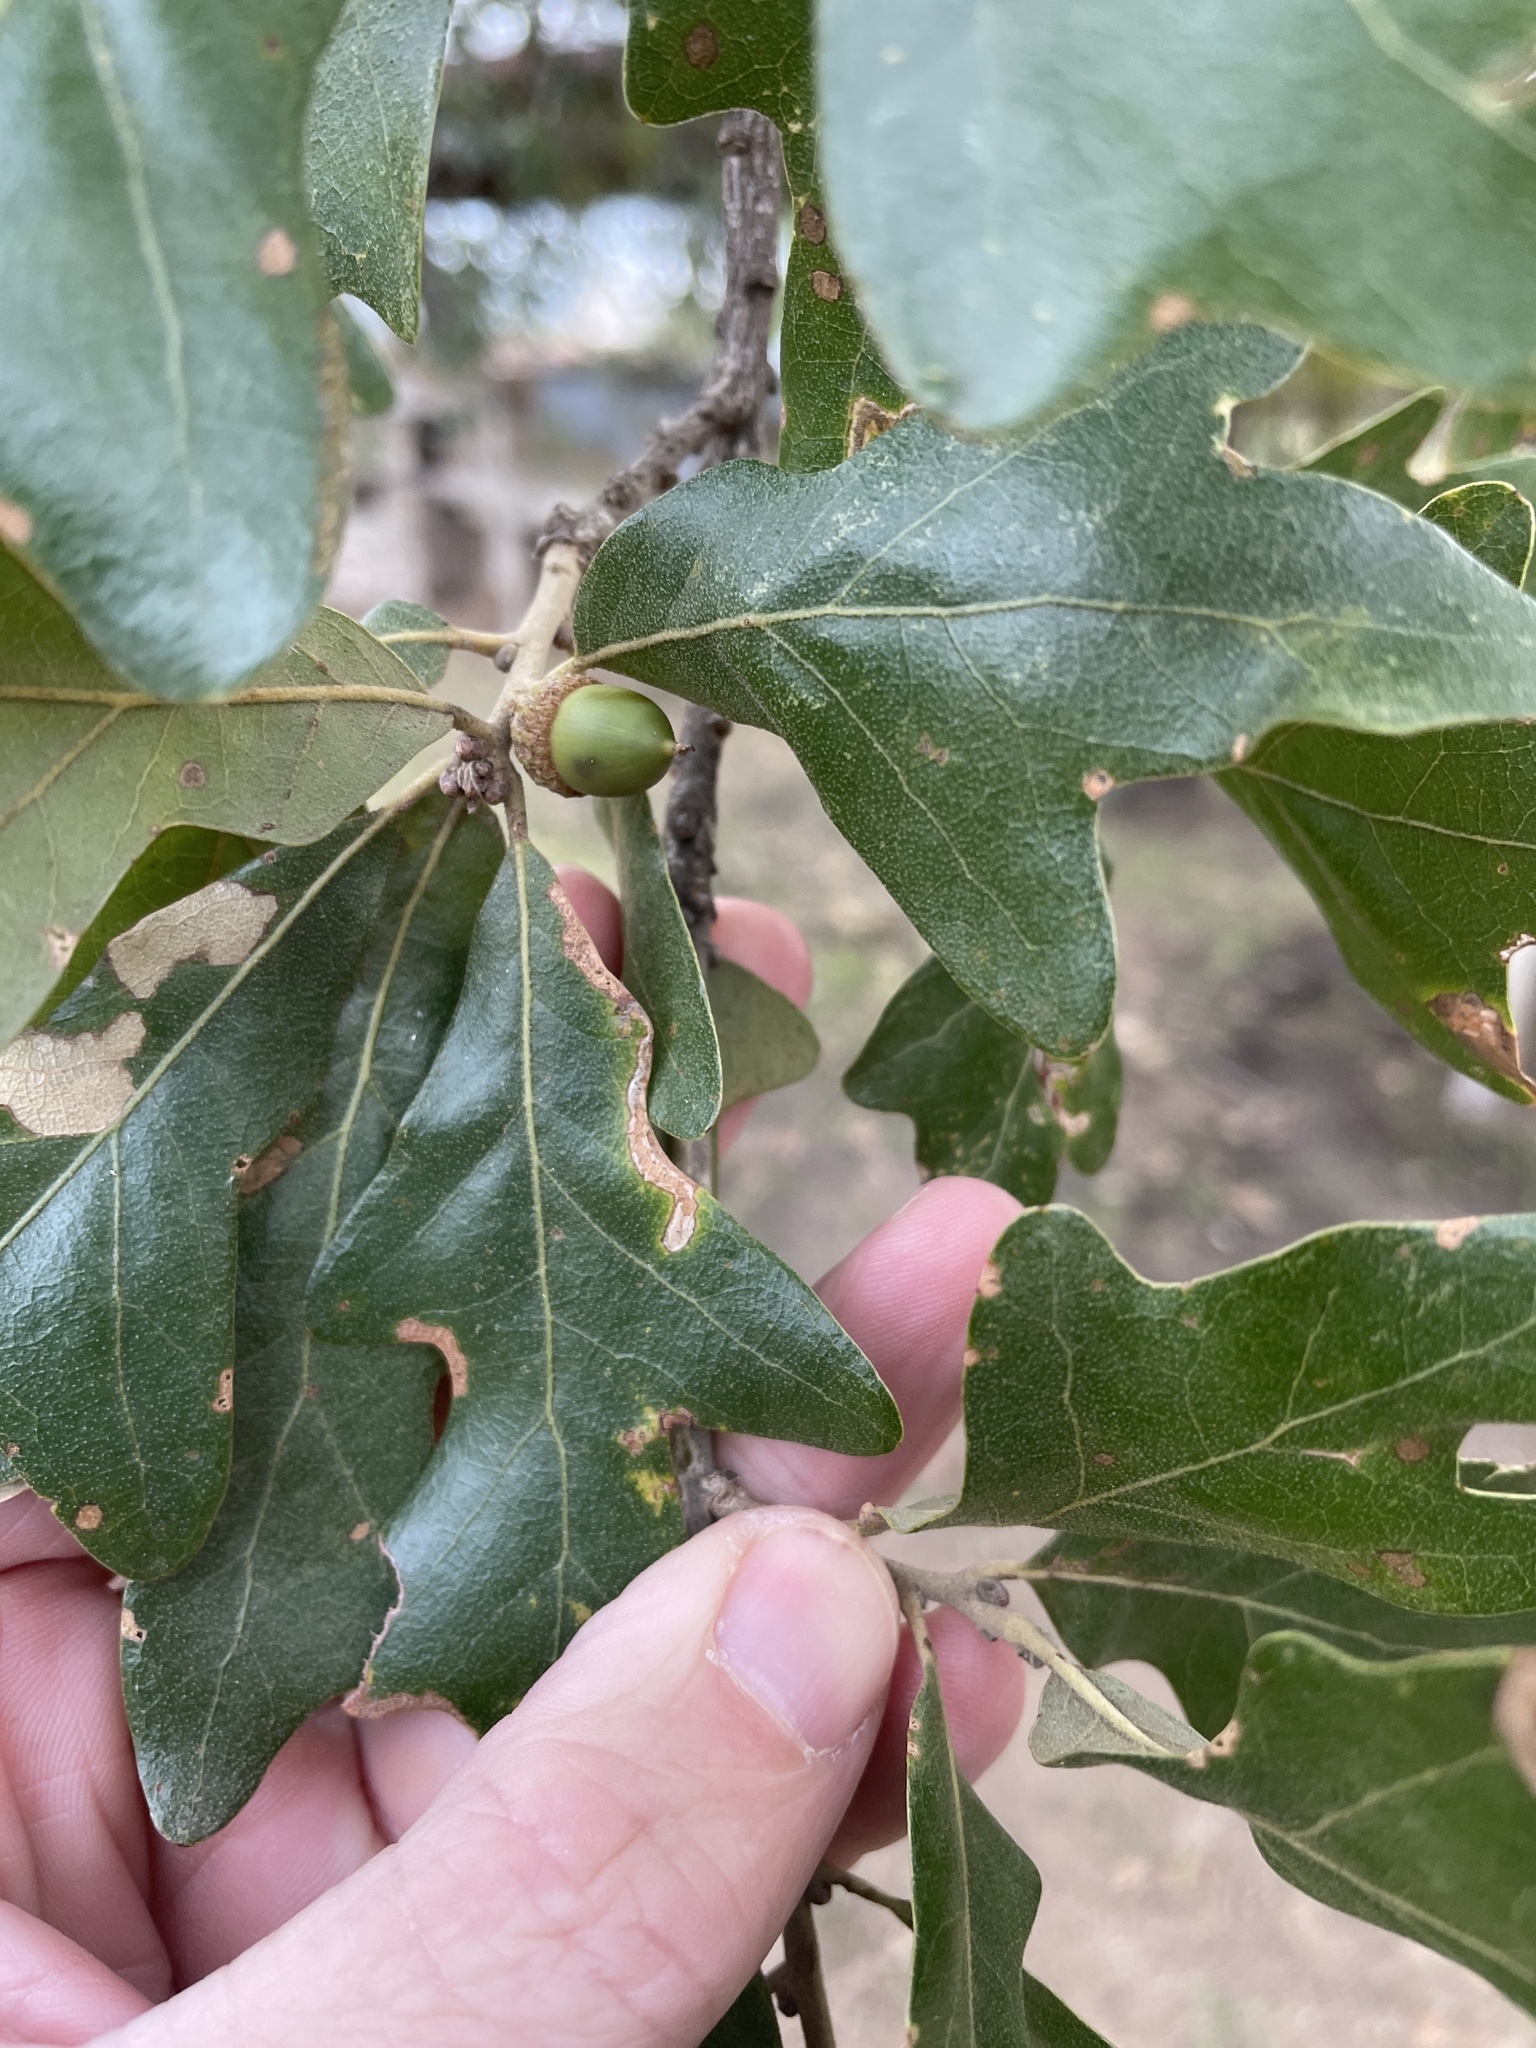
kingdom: Plantae
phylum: Tracheophyta
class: Magnoliopsida
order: Fagales
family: Fagaceae
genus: Quercus
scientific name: Quercus stellata
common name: Post oak
